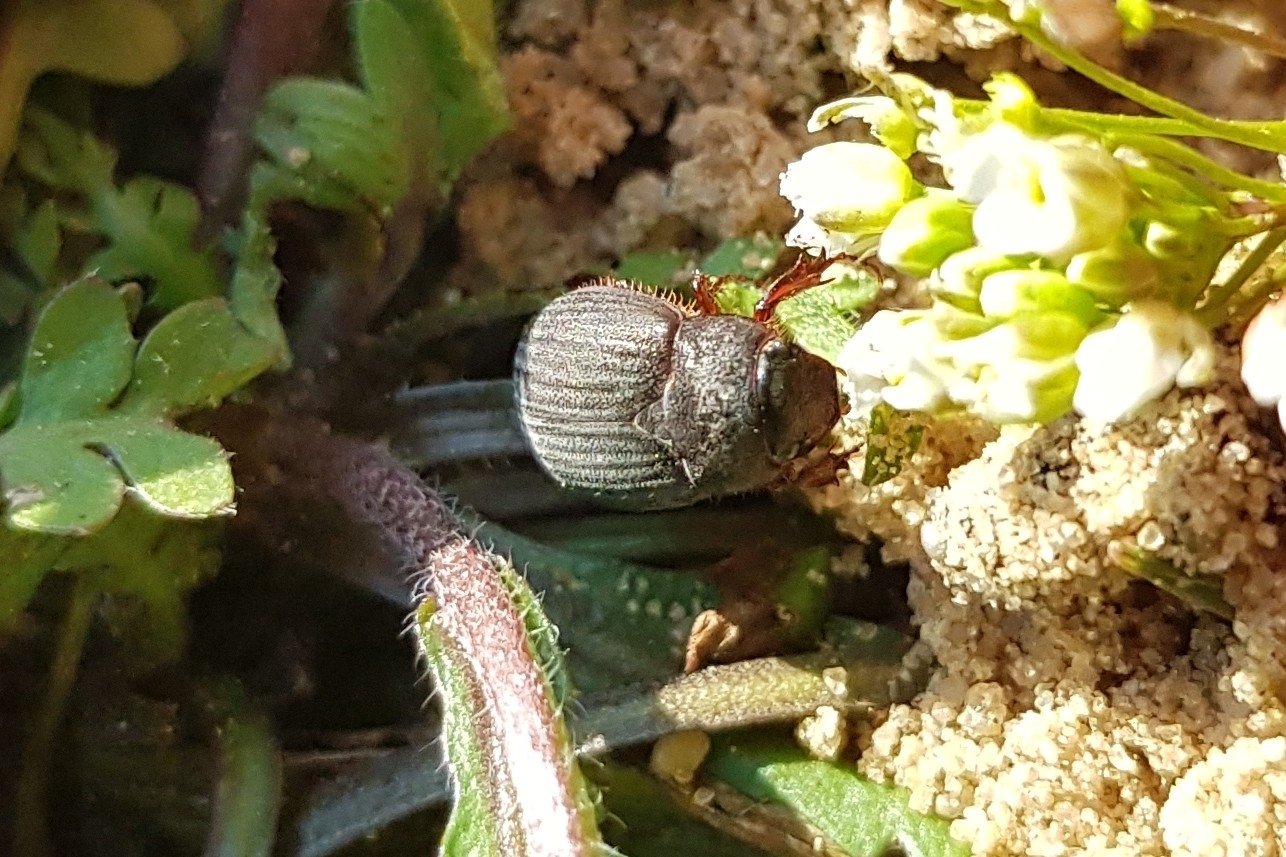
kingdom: Animalia
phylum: Arthropoda
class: Insecta
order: Coleoptera
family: Scarabaeidae
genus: Maladera
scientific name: Maladera holosericea
